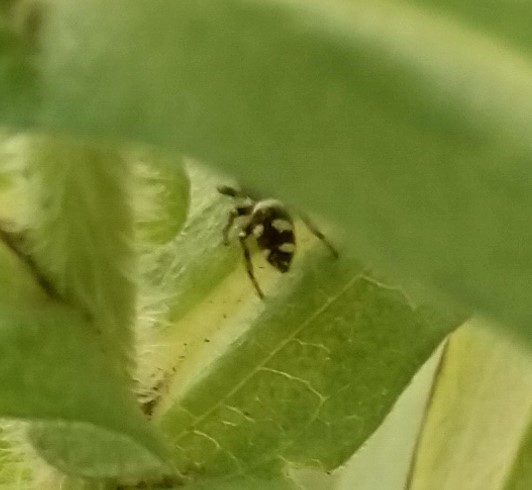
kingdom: Animalia
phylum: Arthropoda
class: Arachnida
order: Araneae
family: Salticidae
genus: Salticus
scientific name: Salticus scenicus
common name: Zebra jumper
